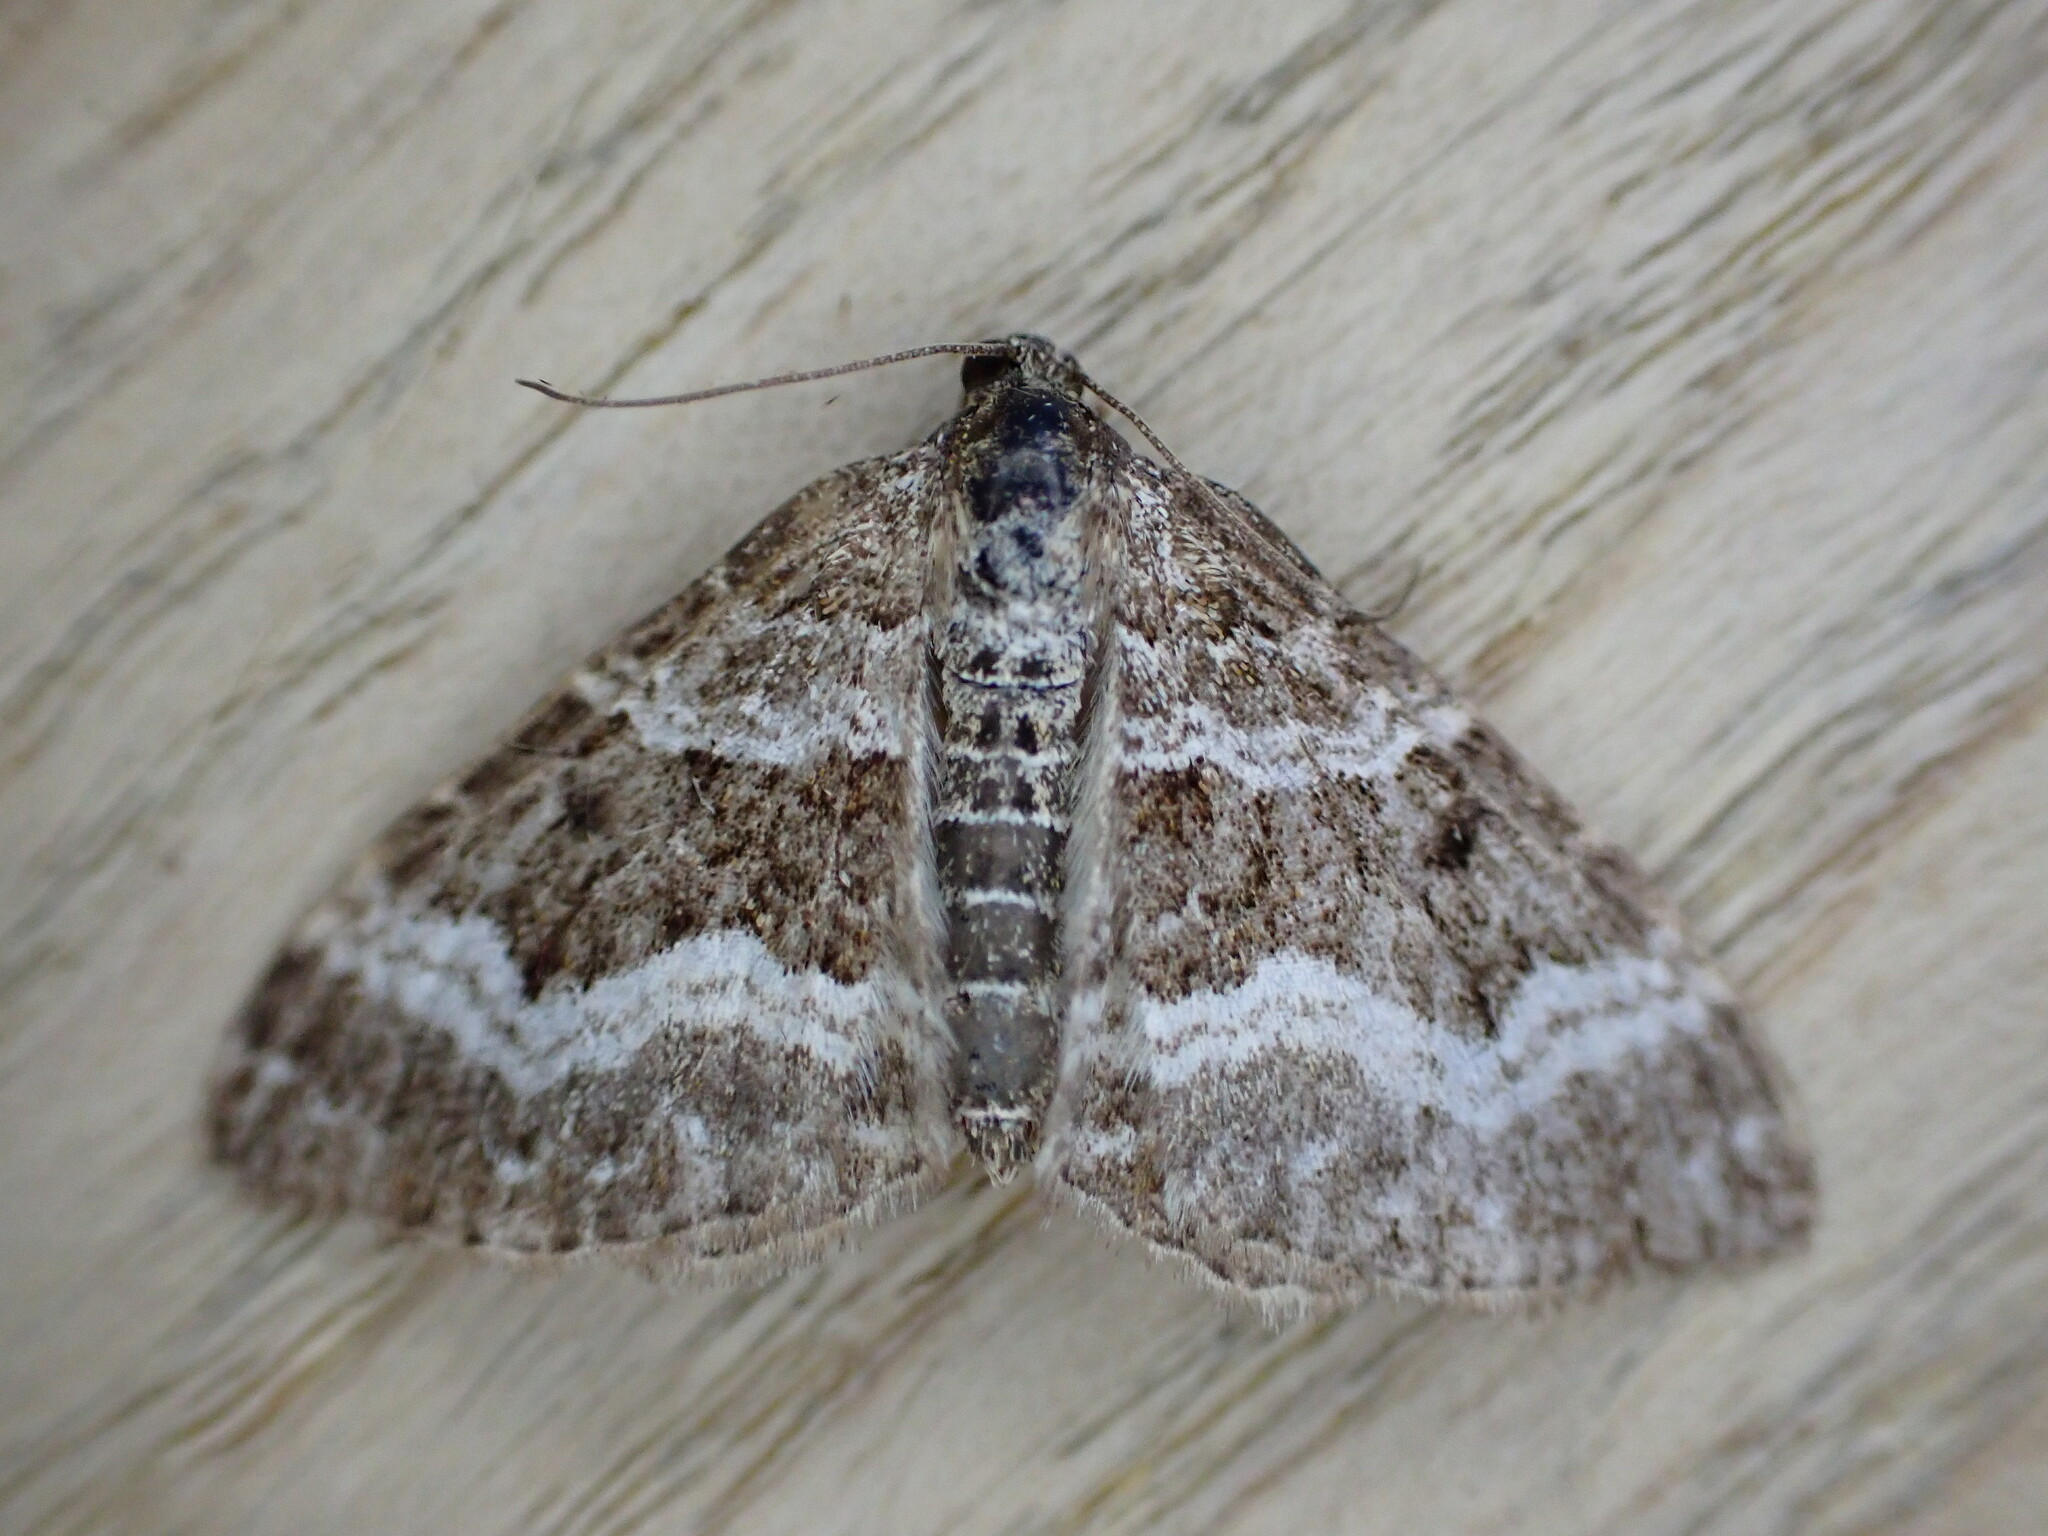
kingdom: Animalia
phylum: Arthropoda
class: Insecta
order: Lepidoptera
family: Geometridae
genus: Epirrhoe
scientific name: Epirrhoe alternata
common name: Common carpet
